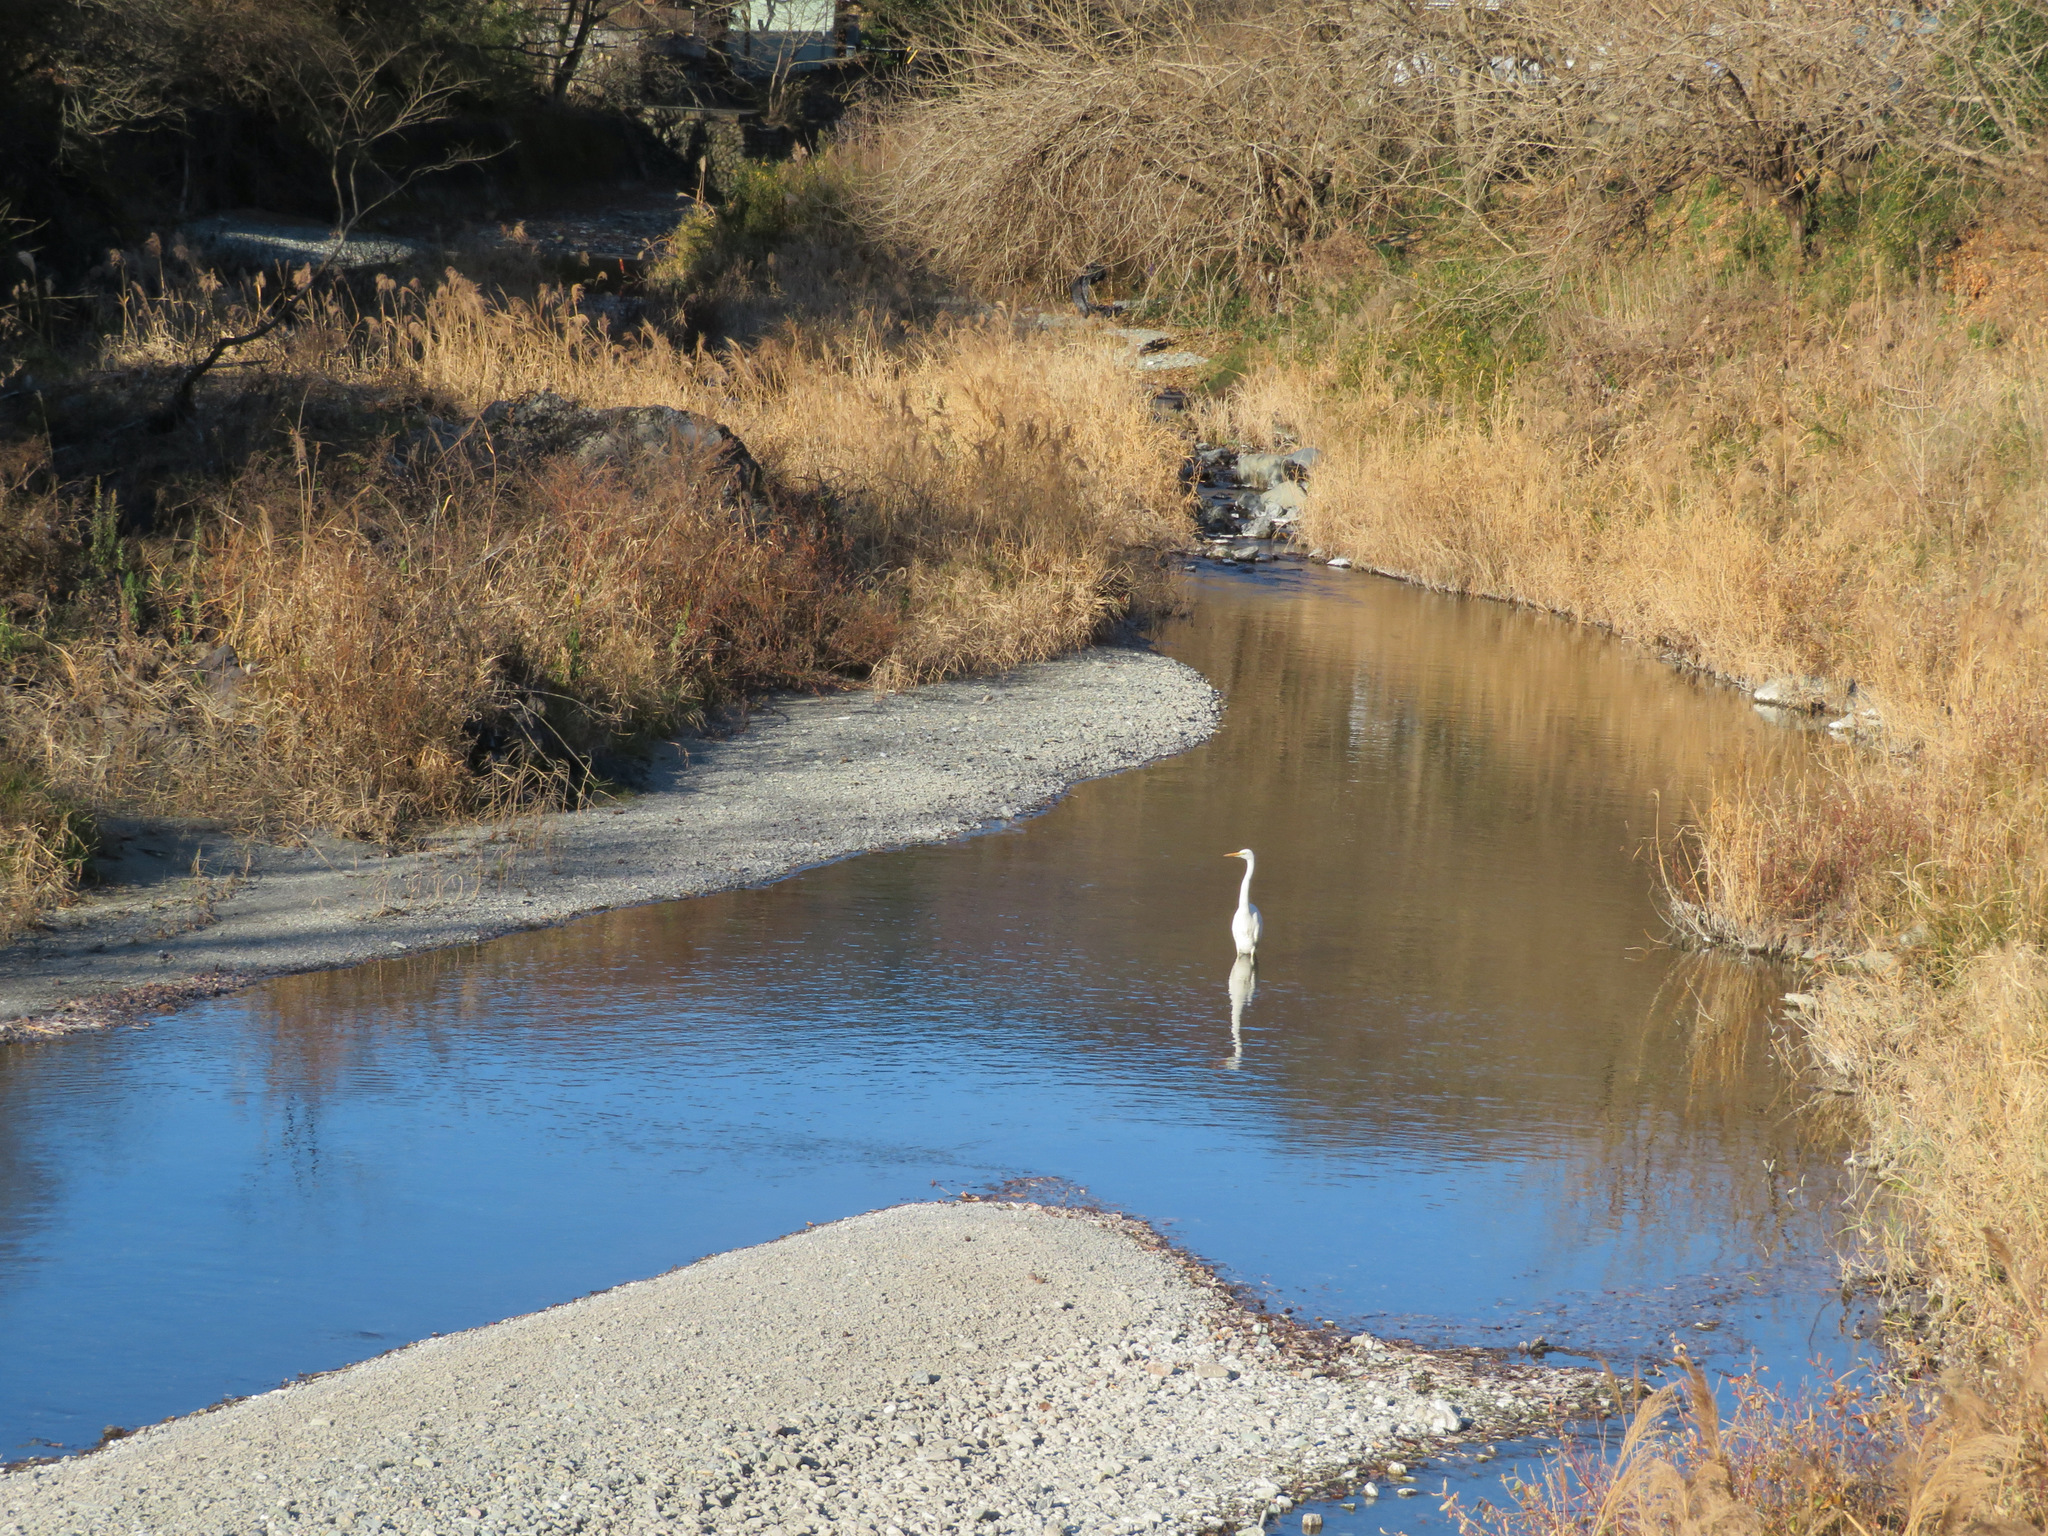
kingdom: Animalia
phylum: Chordata
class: Aves
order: Pelecaniformes
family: Ardeidae
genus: Ardea
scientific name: Ardea alba
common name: Great egret
